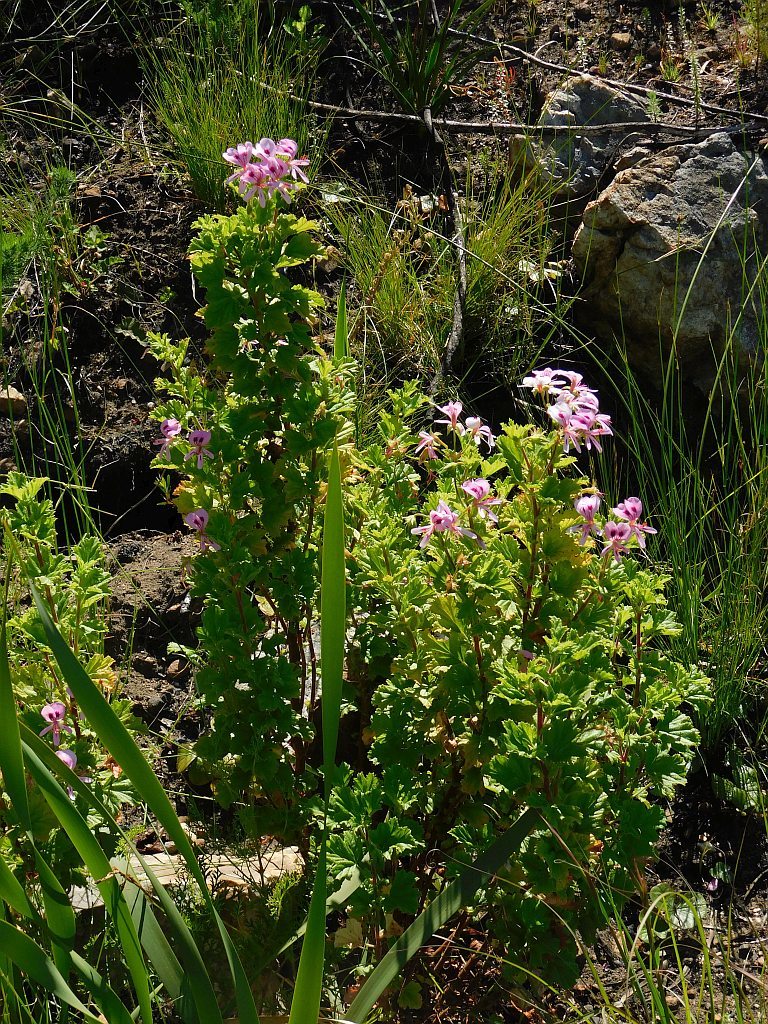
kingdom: Plantae
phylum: Tracheophyta
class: Magnoliopsida
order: Geraniales
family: Geraniaceae
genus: Pelargonium
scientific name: Pelargonium greytonense
